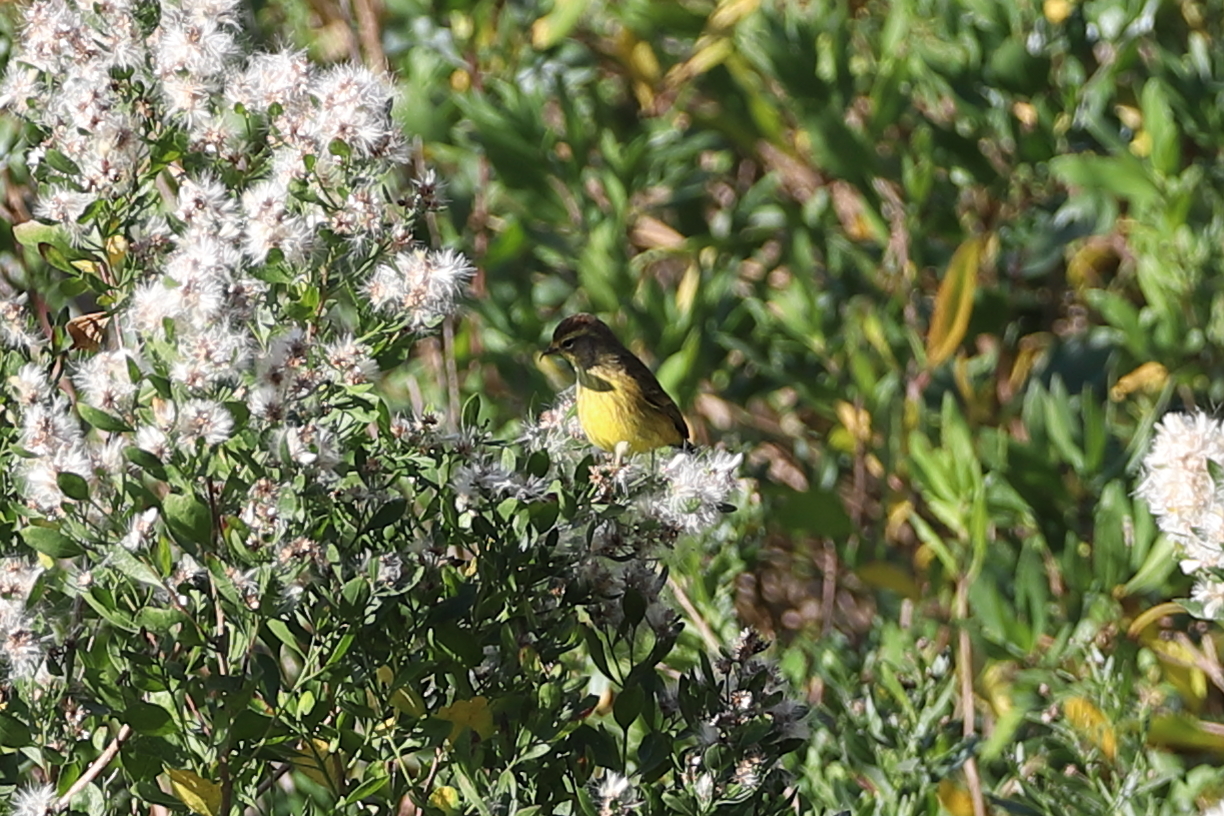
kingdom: Animalia
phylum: Chordata
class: Aves
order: Passeriformes
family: Parulidae
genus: Setophaga
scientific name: Setophaga palmarum
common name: Palm warbler
